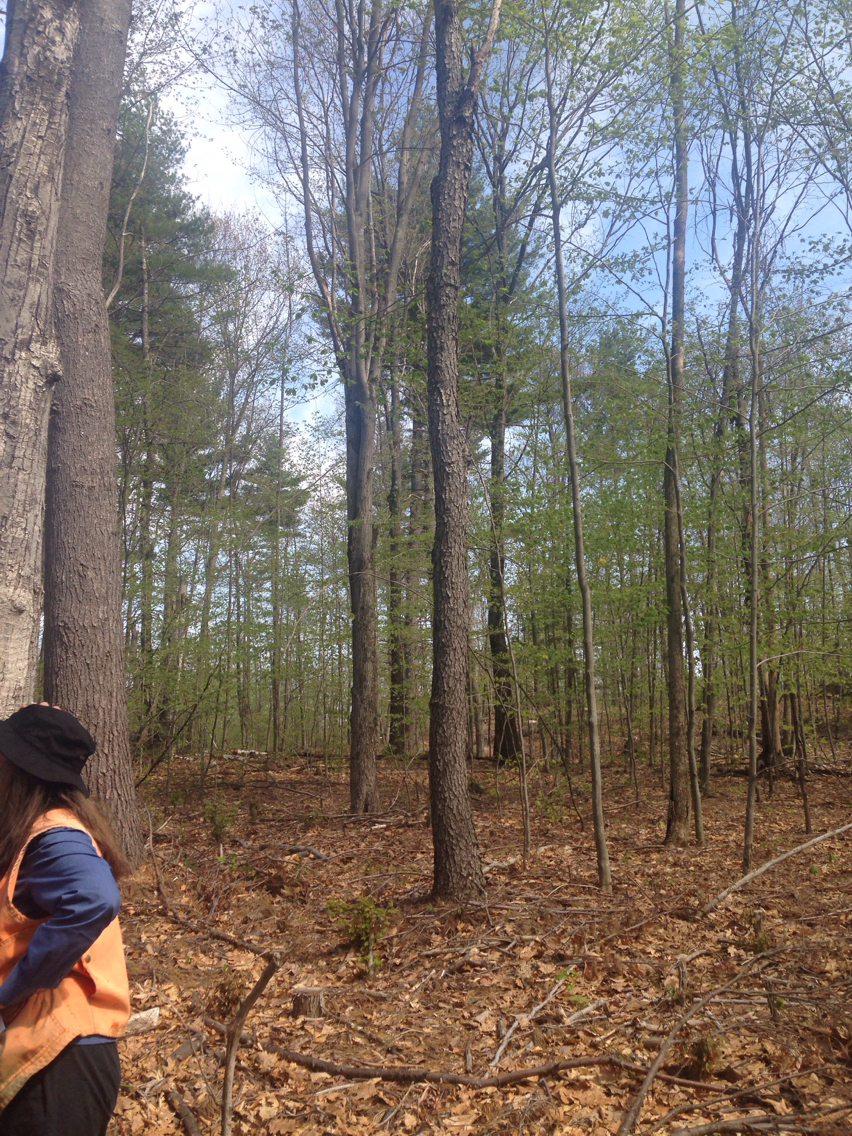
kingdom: Plantae
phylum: Tracheophyta
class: Magnoliopsida
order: Rosales
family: Rosaceae
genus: Prunus
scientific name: Prunus serotina
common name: Black cherry
